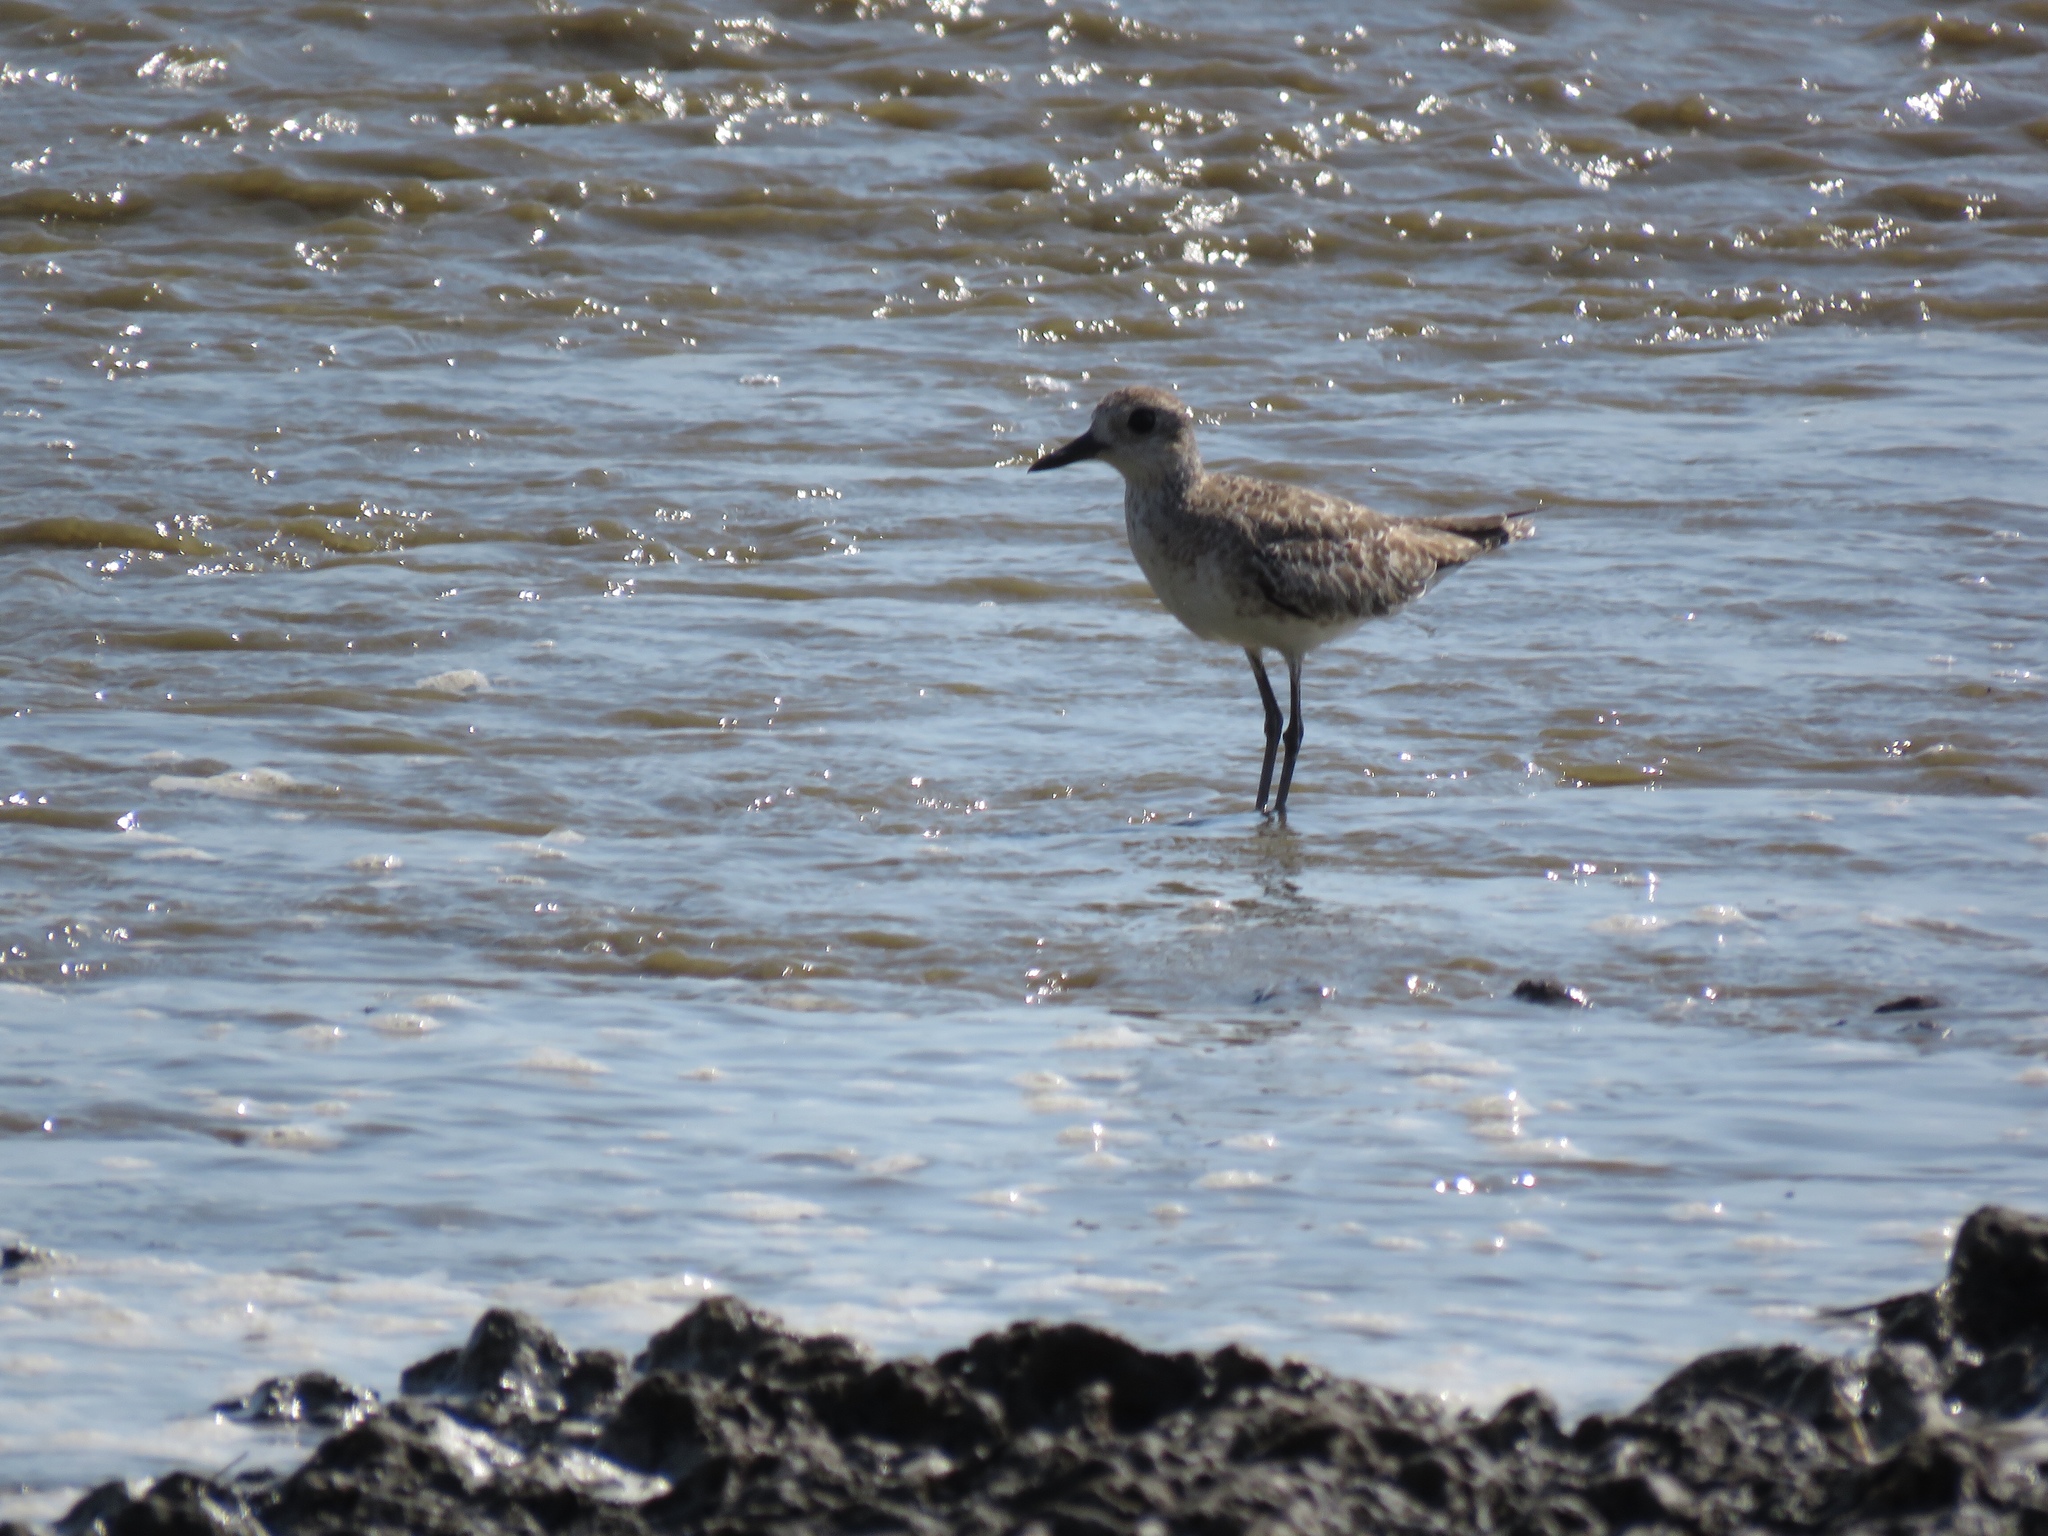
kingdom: Animalia
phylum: Chordata
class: Aves
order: Charadriiformes
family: Charadriidae
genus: Pluvialis
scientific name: Pluvialis squatarola
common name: Grey plover
